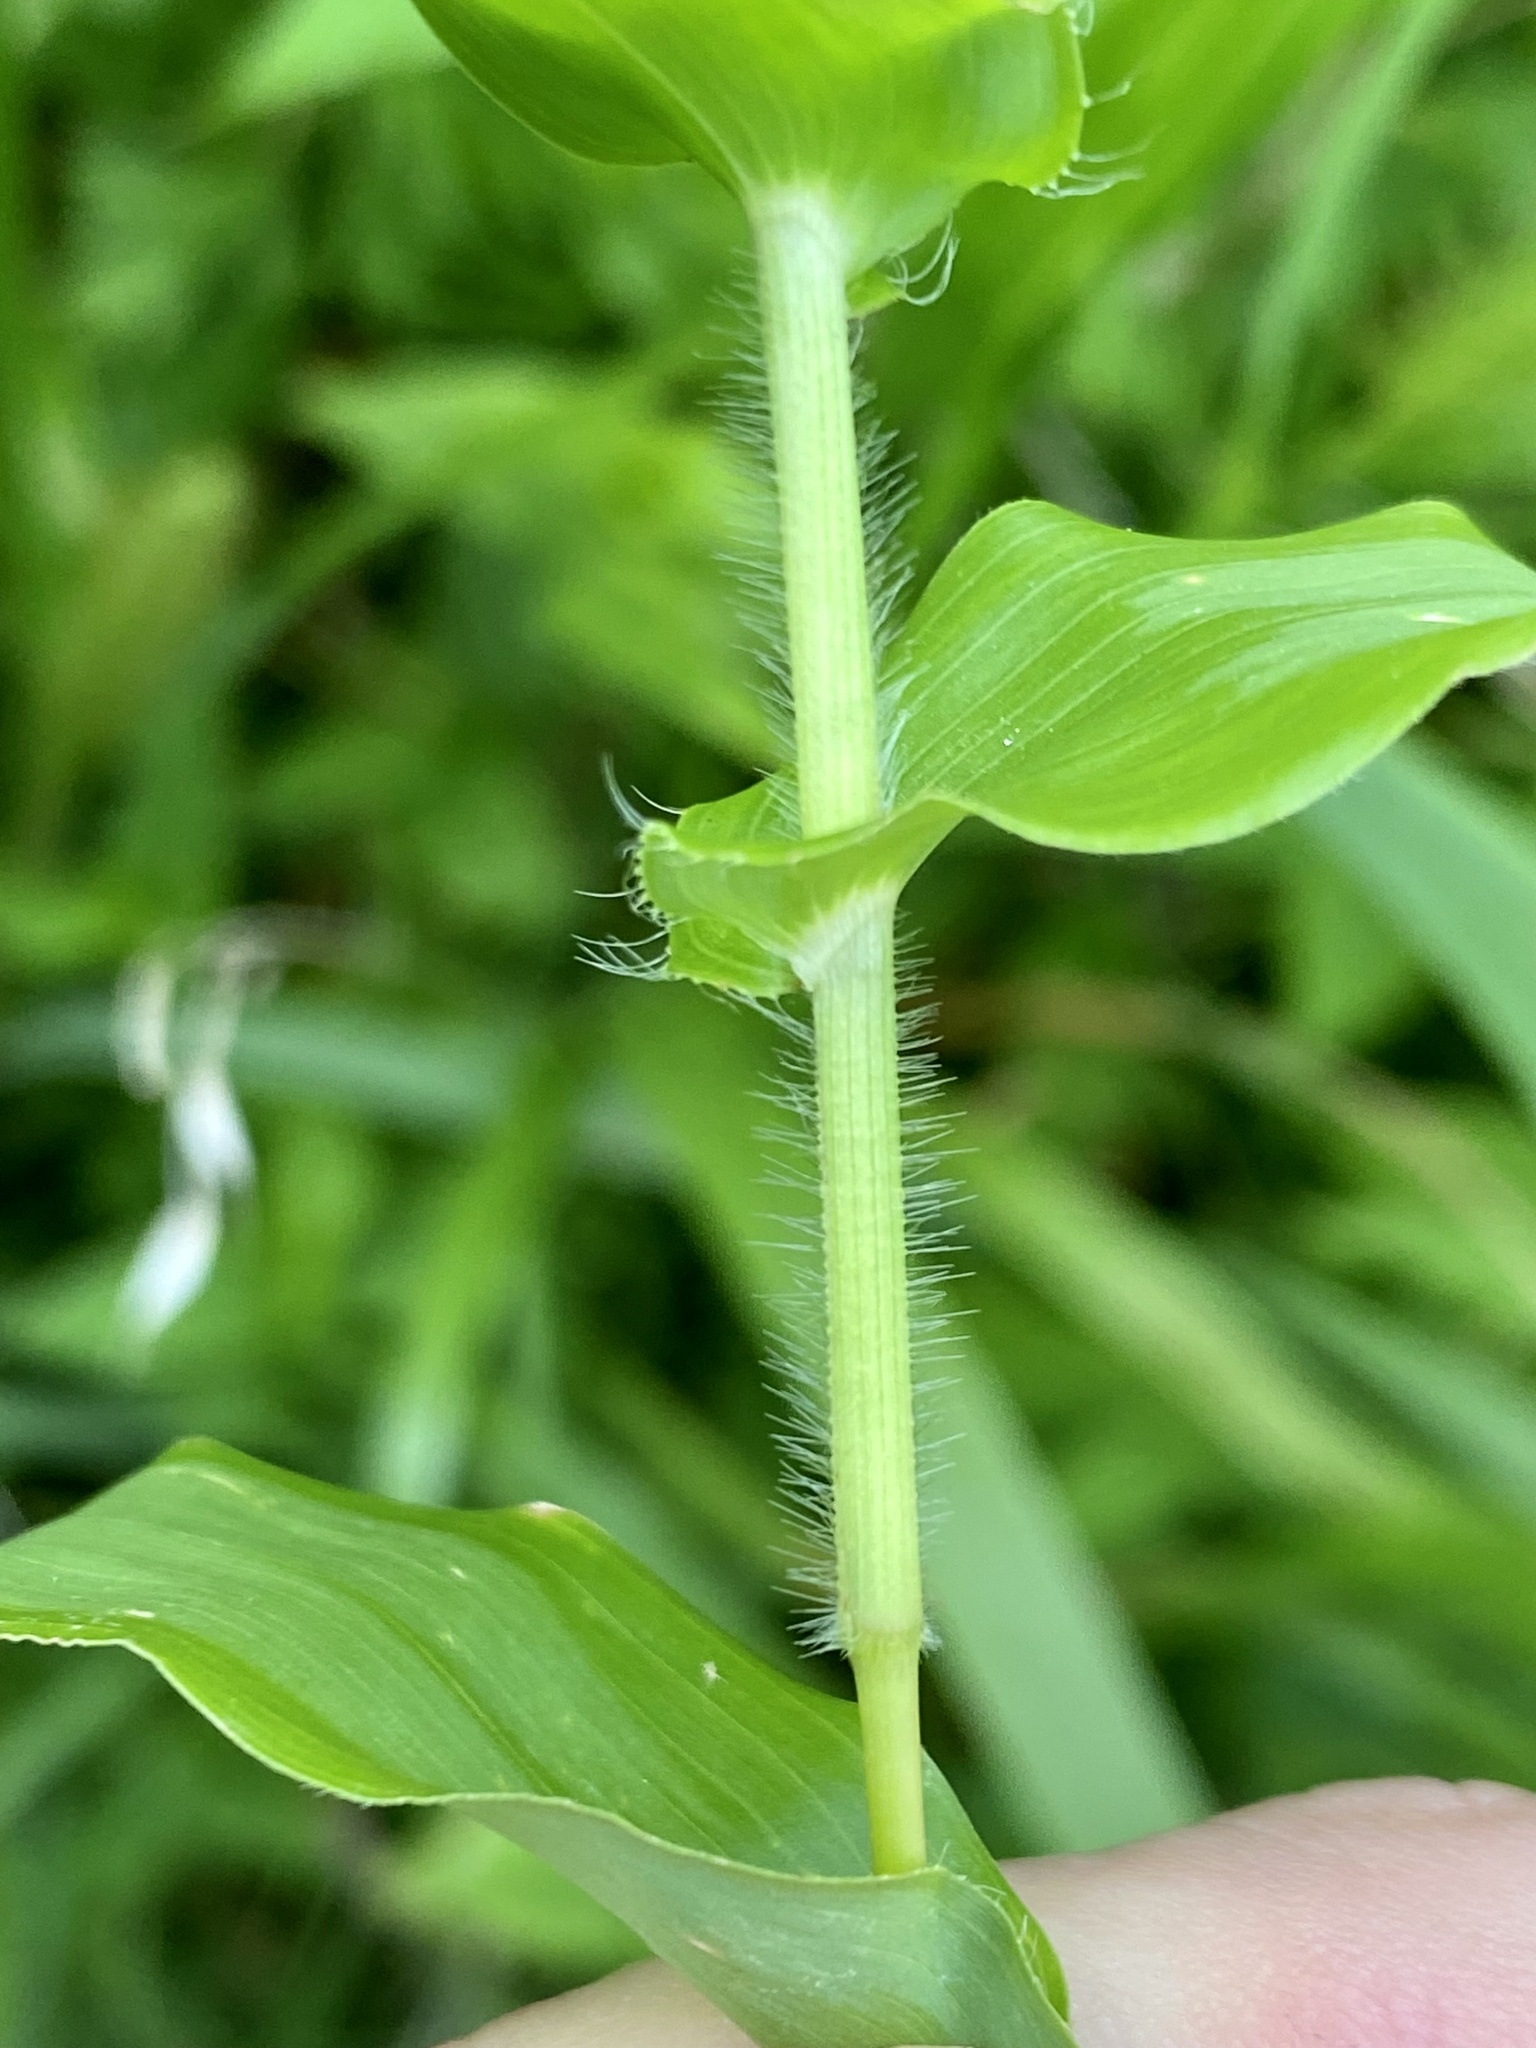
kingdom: Plantae
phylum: Tracheophyta
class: Liliopsida
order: Poales
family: Poaceae
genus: Arthraxon
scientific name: Arthraxon hispidus
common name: Small carpgrass
